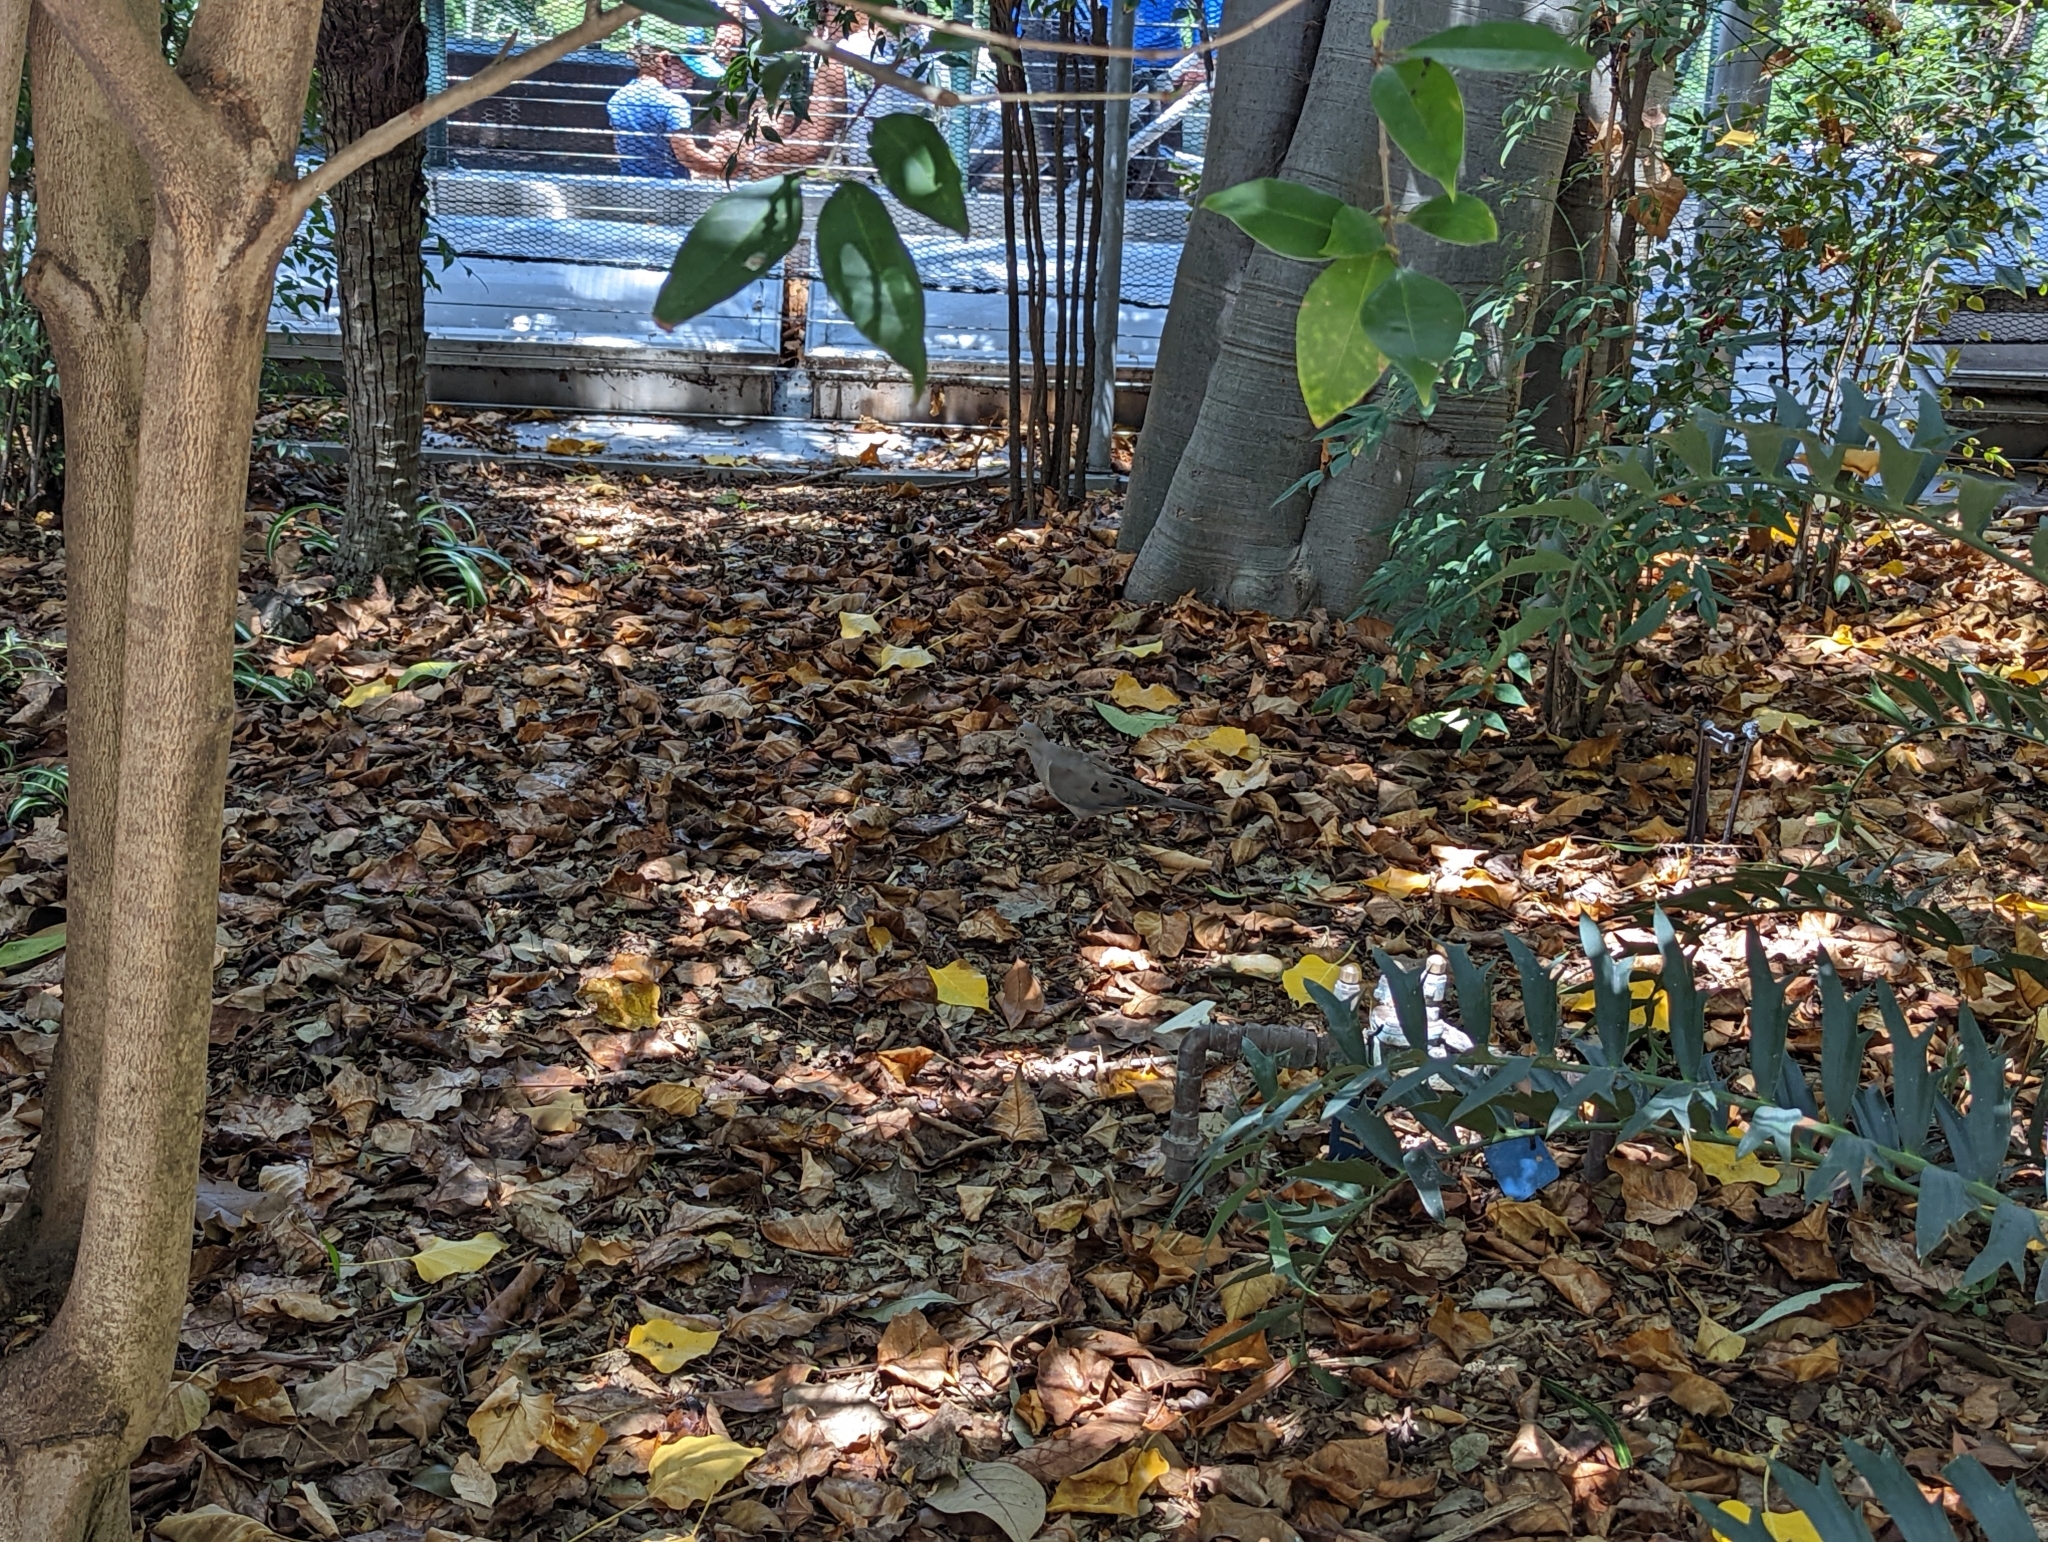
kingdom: Animalia
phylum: Chordata
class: Aves
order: Columbiformes
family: Columbidae
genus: Zenaida
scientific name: Zenaida macroura
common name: Mourning dove
